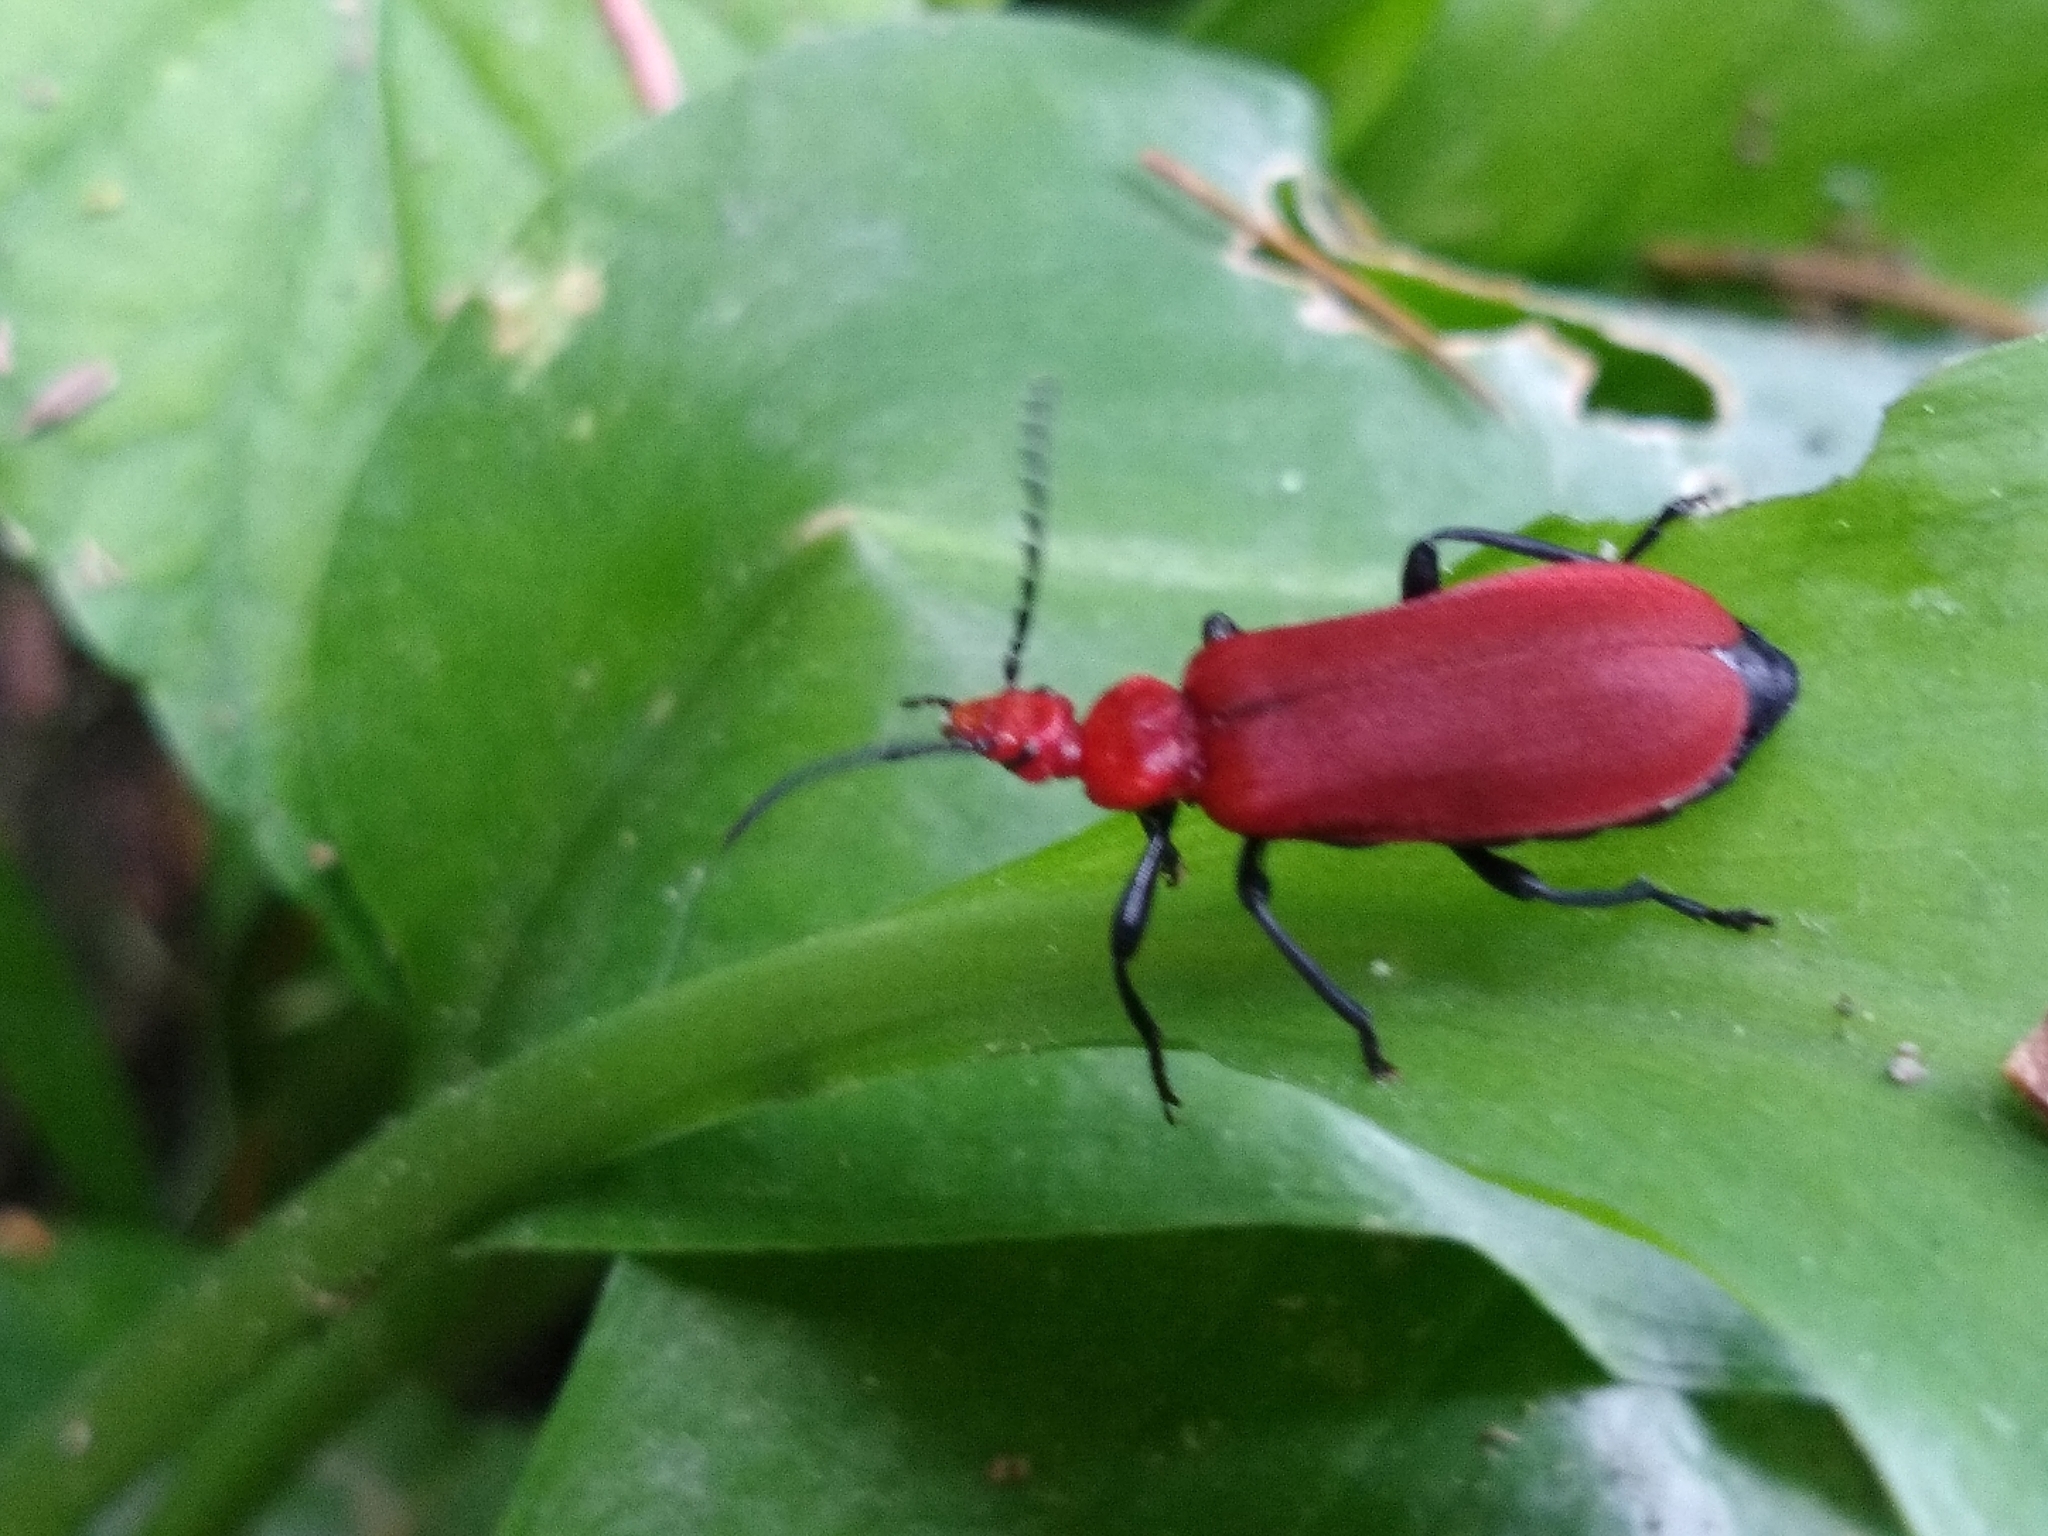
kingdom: Animalia
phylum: Arthropoda
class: Insecta
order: Coleoptera
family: Pyrochroidae
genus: Pyrochroa
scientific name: Pyrochroa serraticornis
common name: Red-headed cardinal beetle
